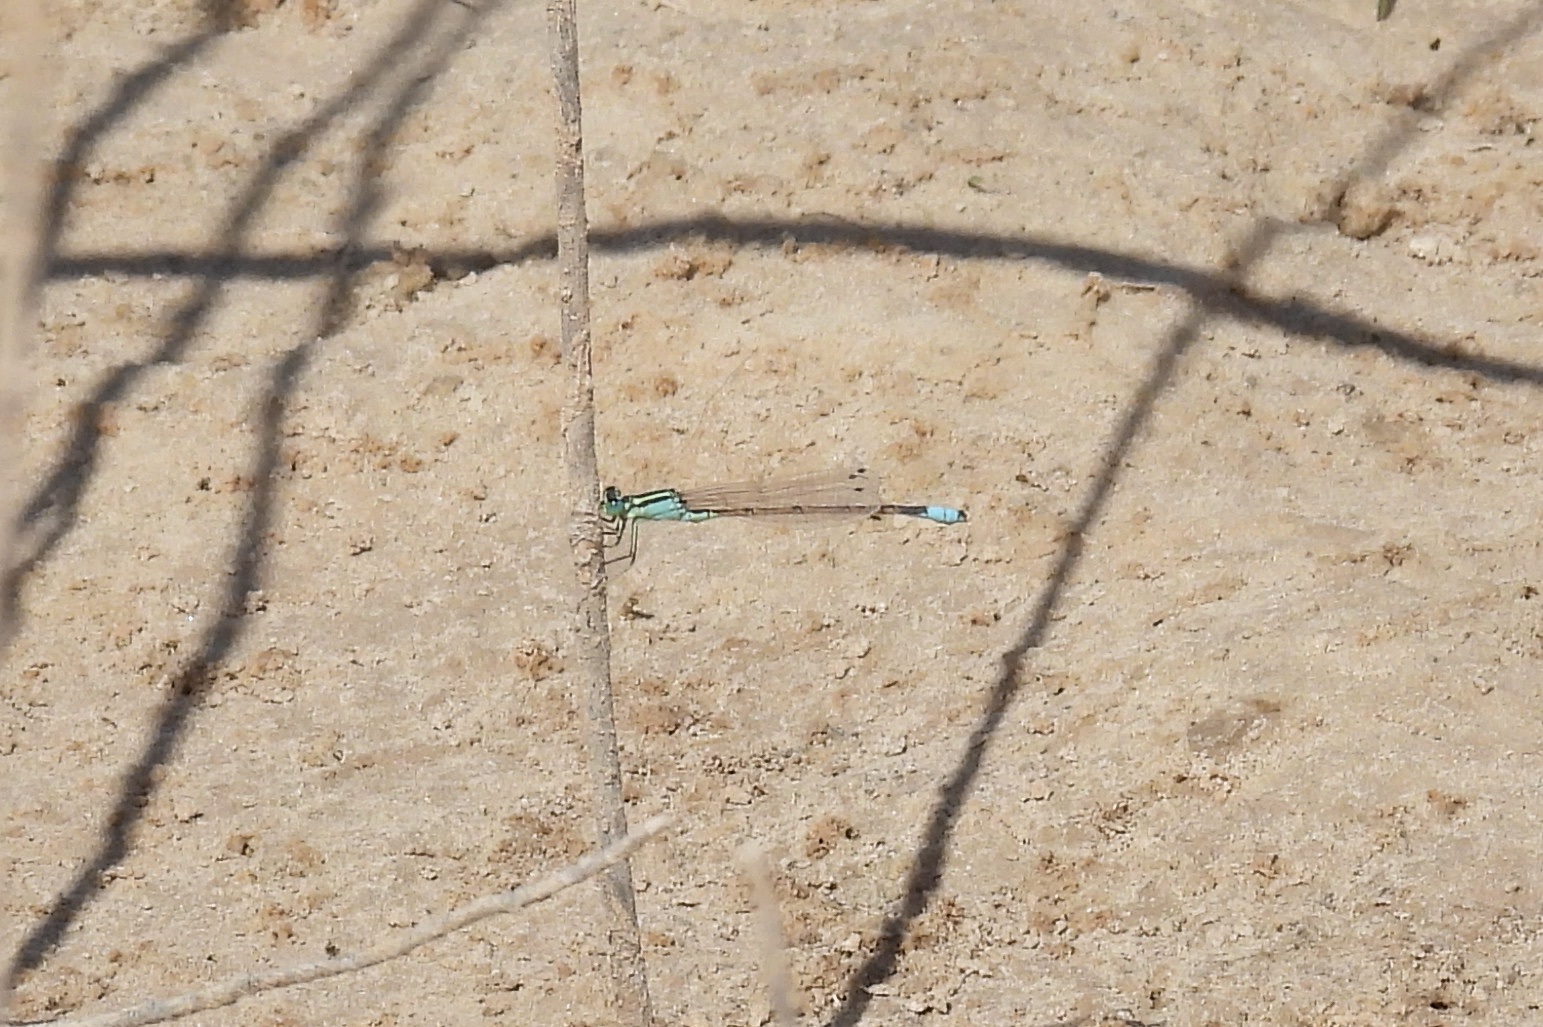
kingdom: Animalia
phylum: Arthropoda
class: Insecta
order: Odonata
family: Coenagrionidae
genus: Ischnura
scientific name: Ischnura barberi
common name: Desert forktail
